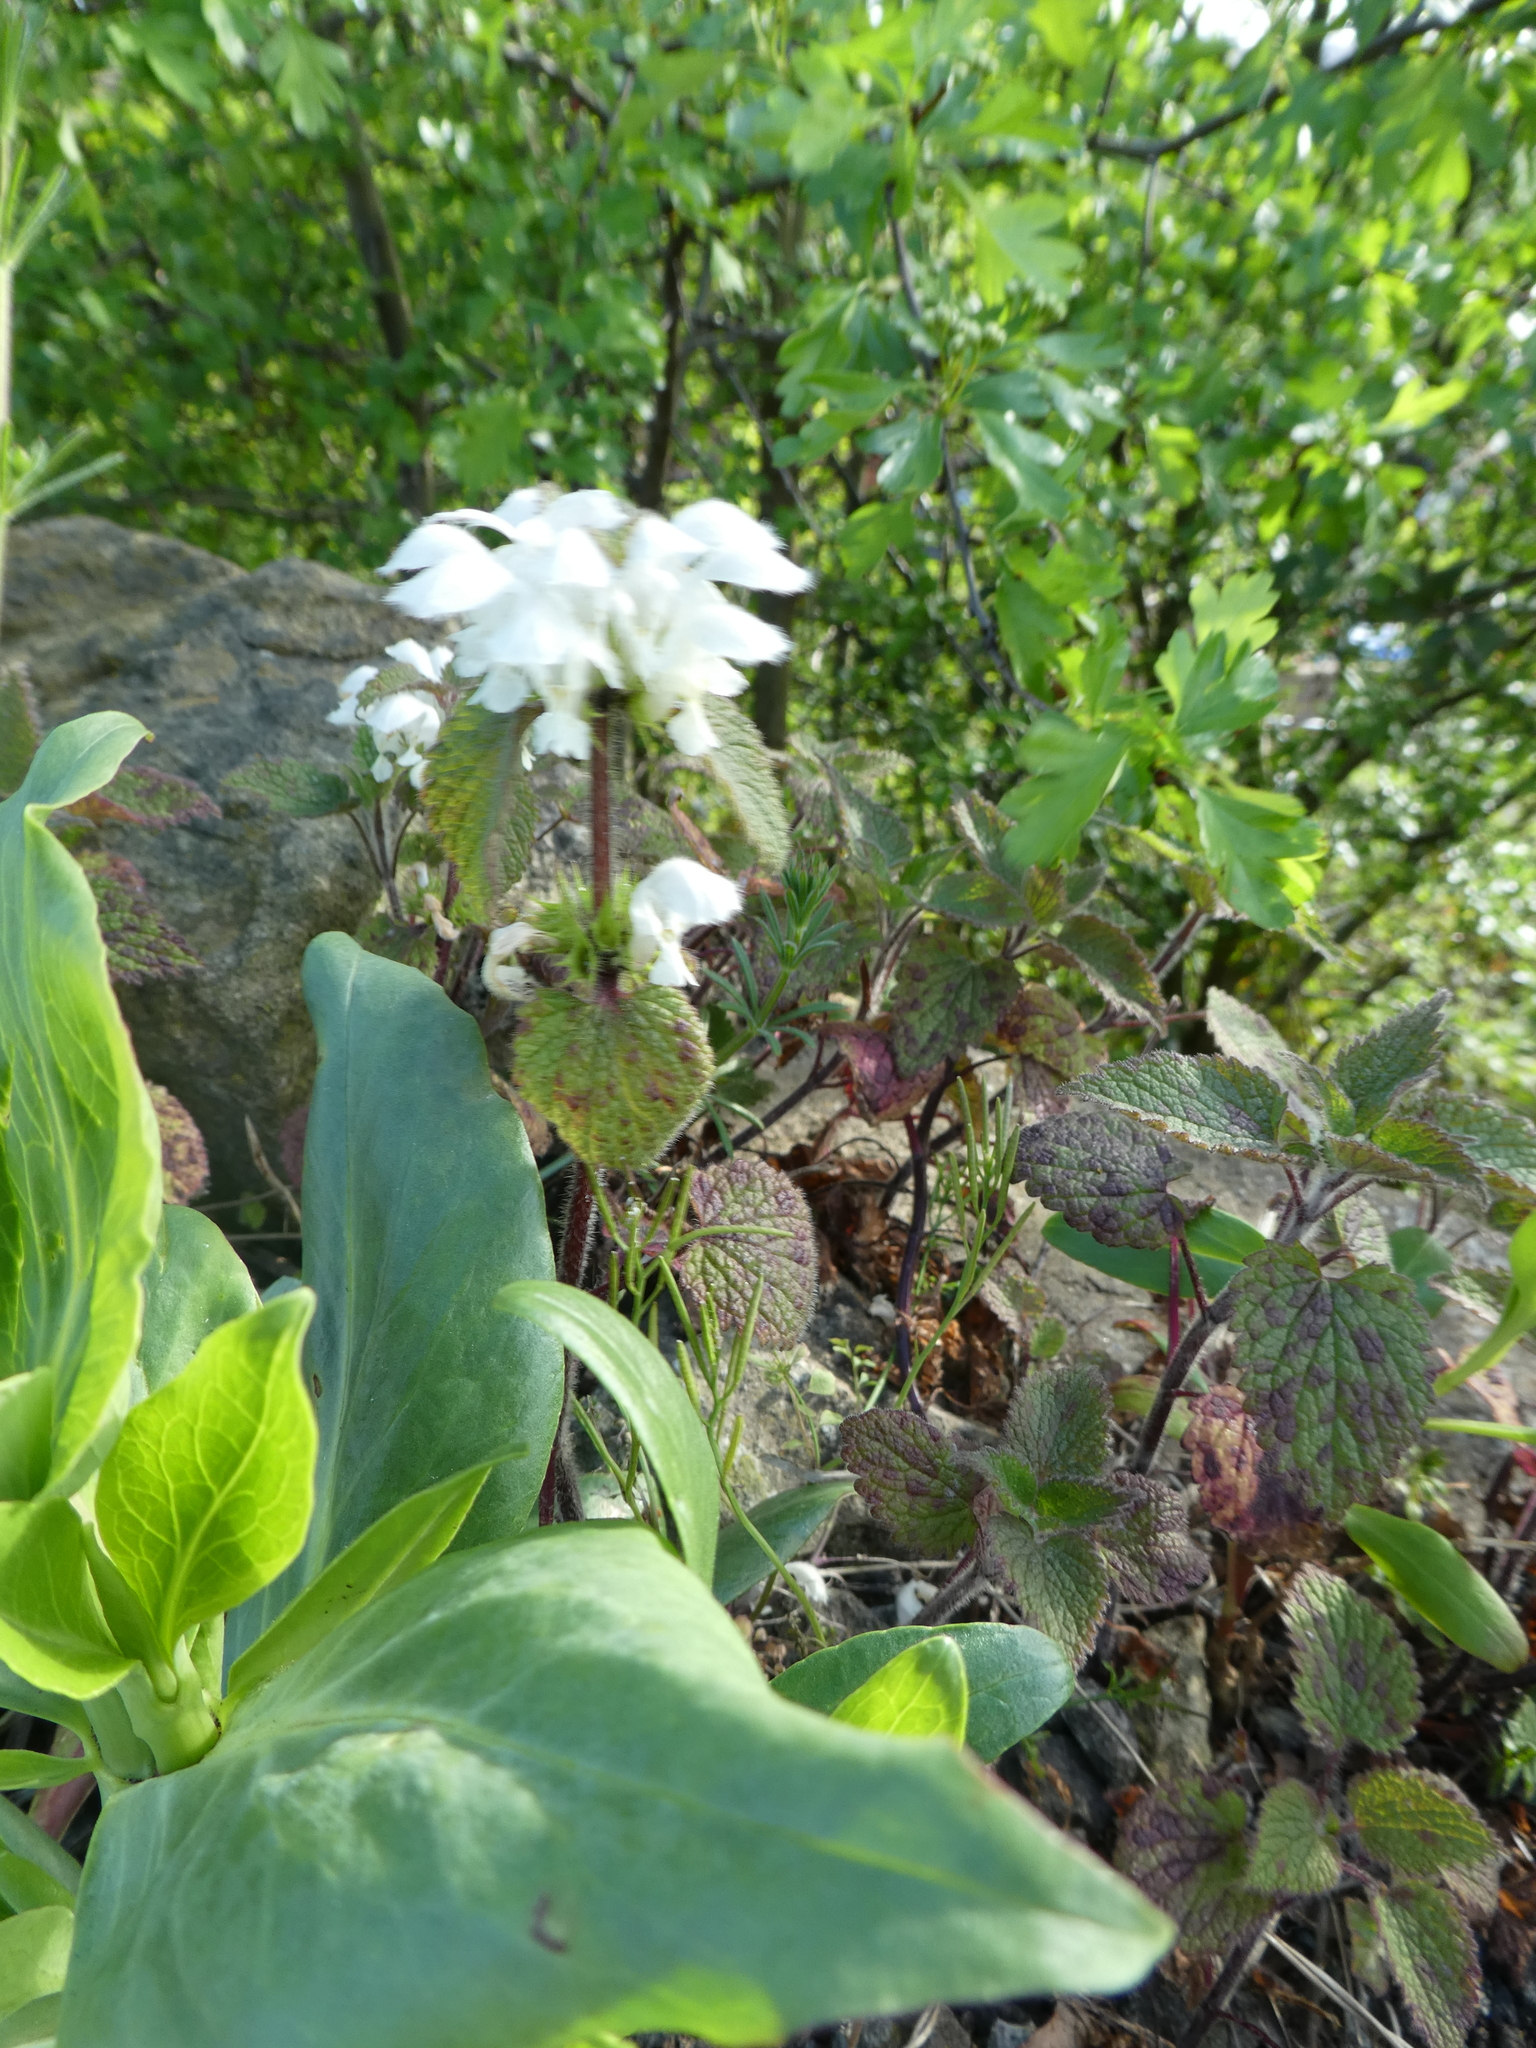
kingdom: Plantae
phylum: Tracheophyta
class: Magnoliopsida
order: Lamiales
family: Lamiaceae
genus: Lamium
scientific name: Lamium album
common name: White dead-nettle
